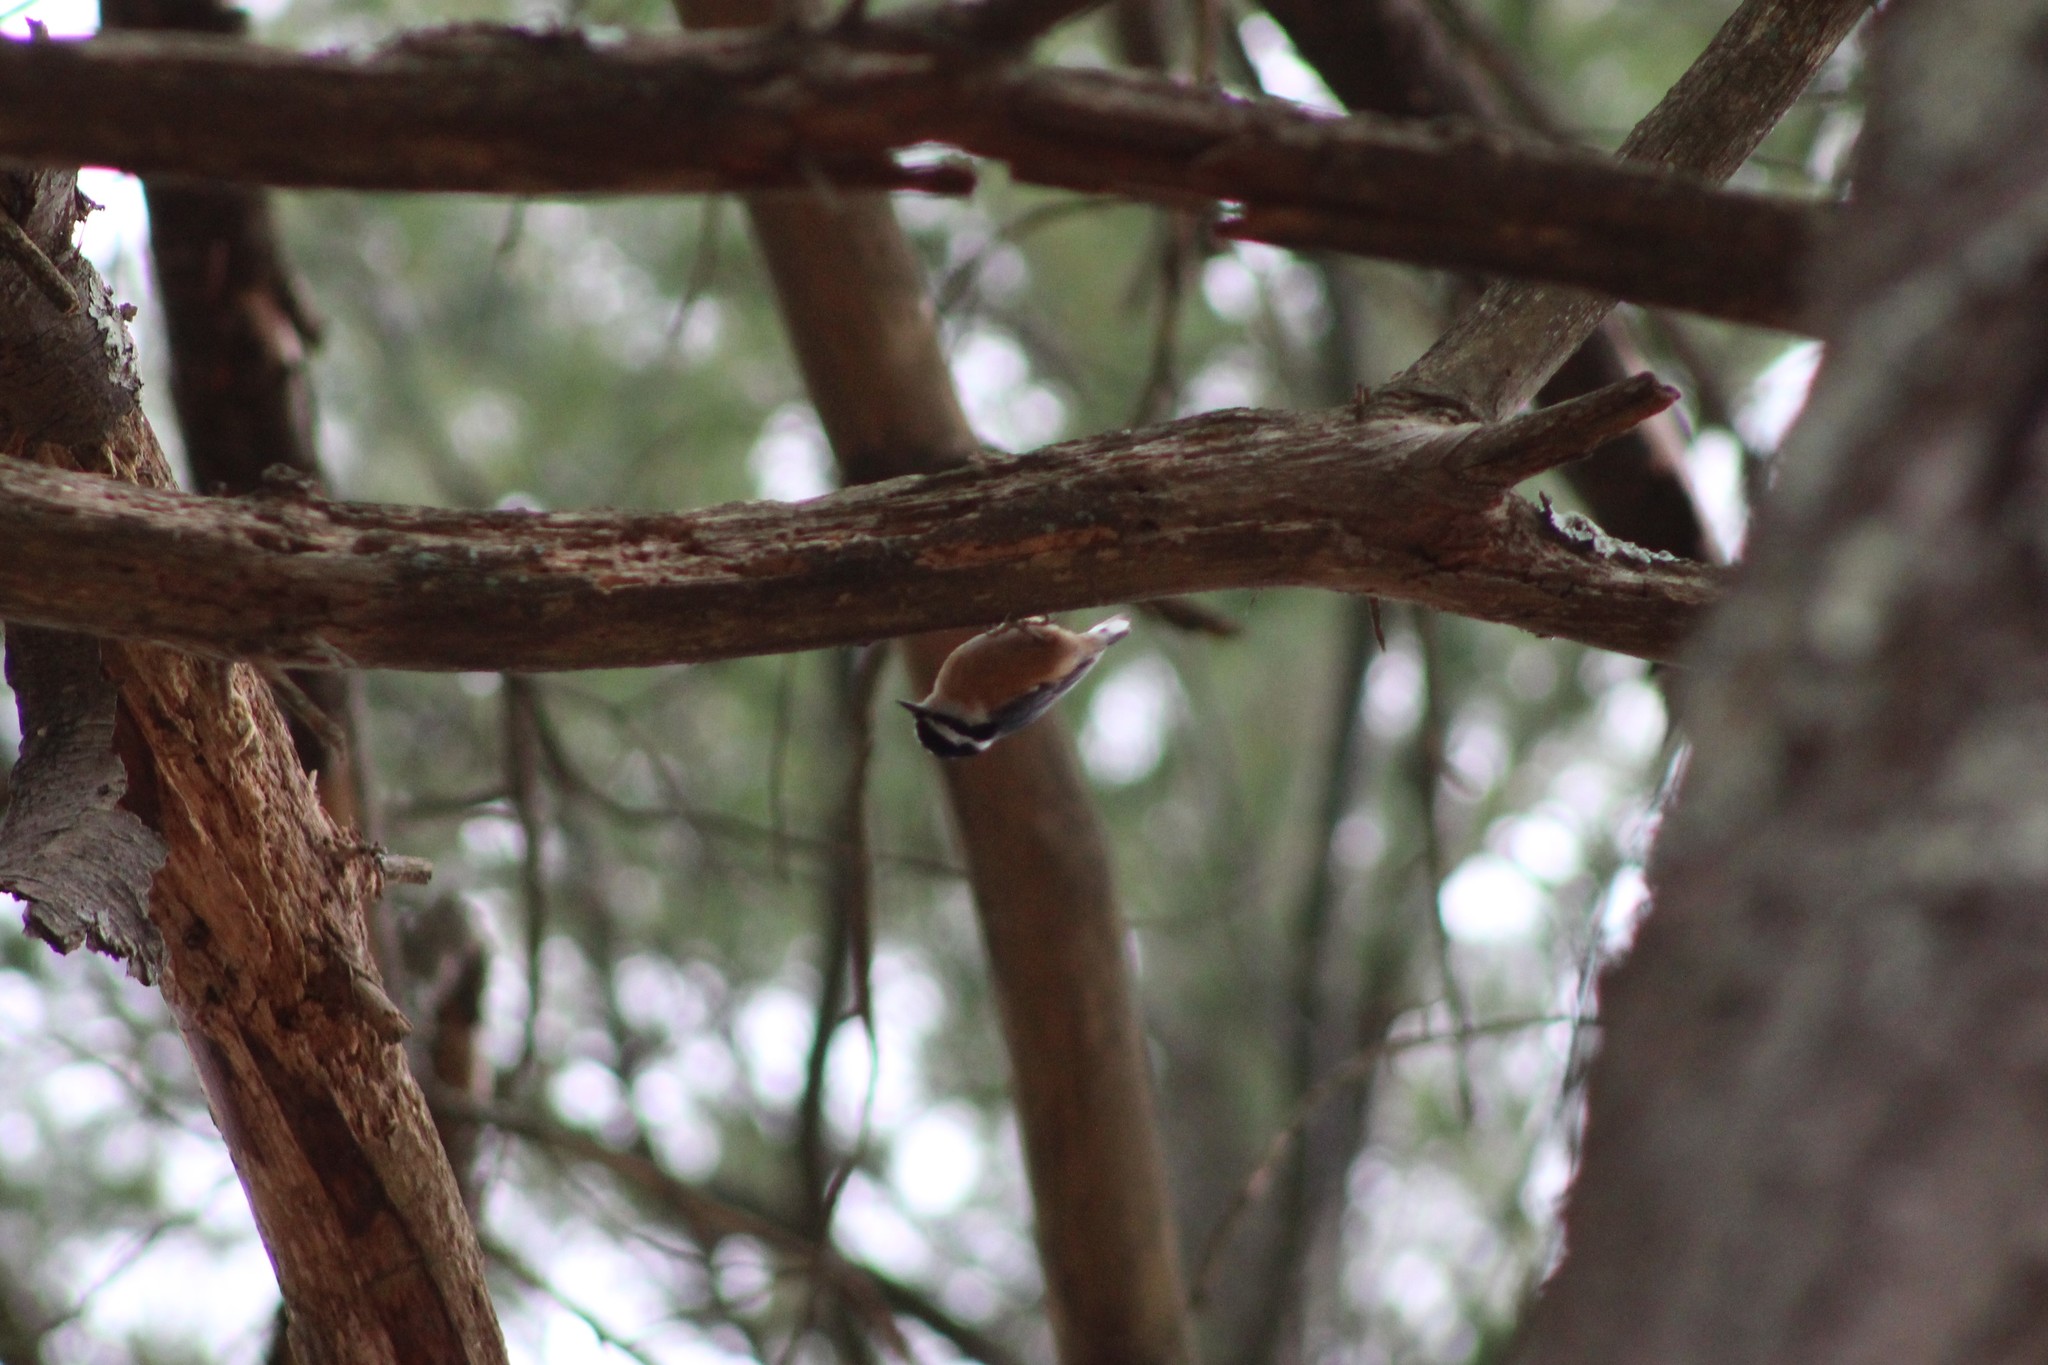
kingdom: Animalia
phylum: Chordata
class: Aves
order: Passeriformes
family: Sittidae
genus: Sitta
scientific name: Sitta canadensis
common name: Red-breasted nuthatch
